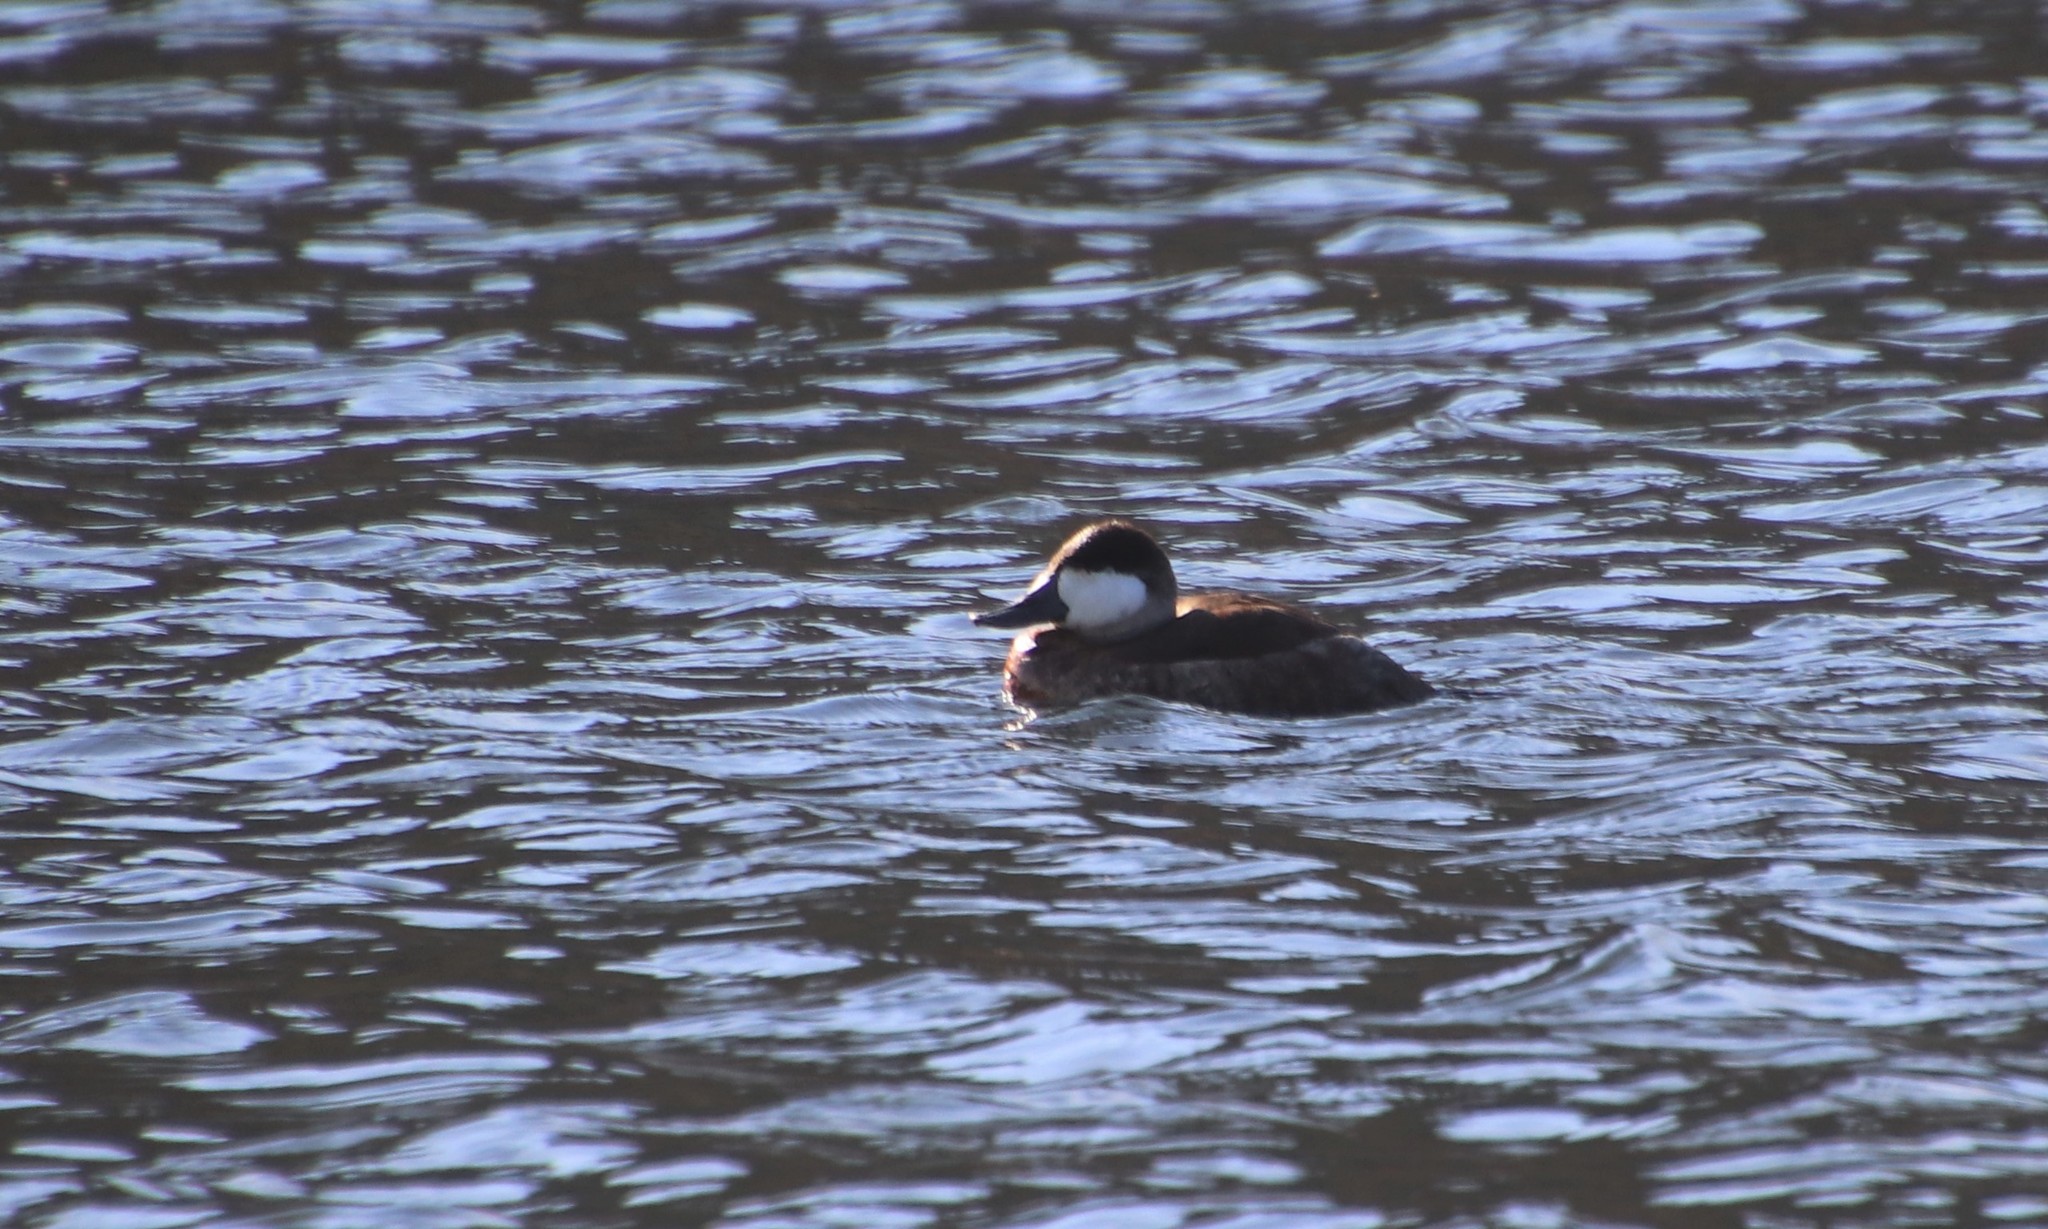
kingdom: Animalia
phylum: Chordata
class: Aves
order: Anseriformes
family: Anatidae
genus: Oxyura
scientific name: Oxyura jamaicensis
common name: Ruddy duck
